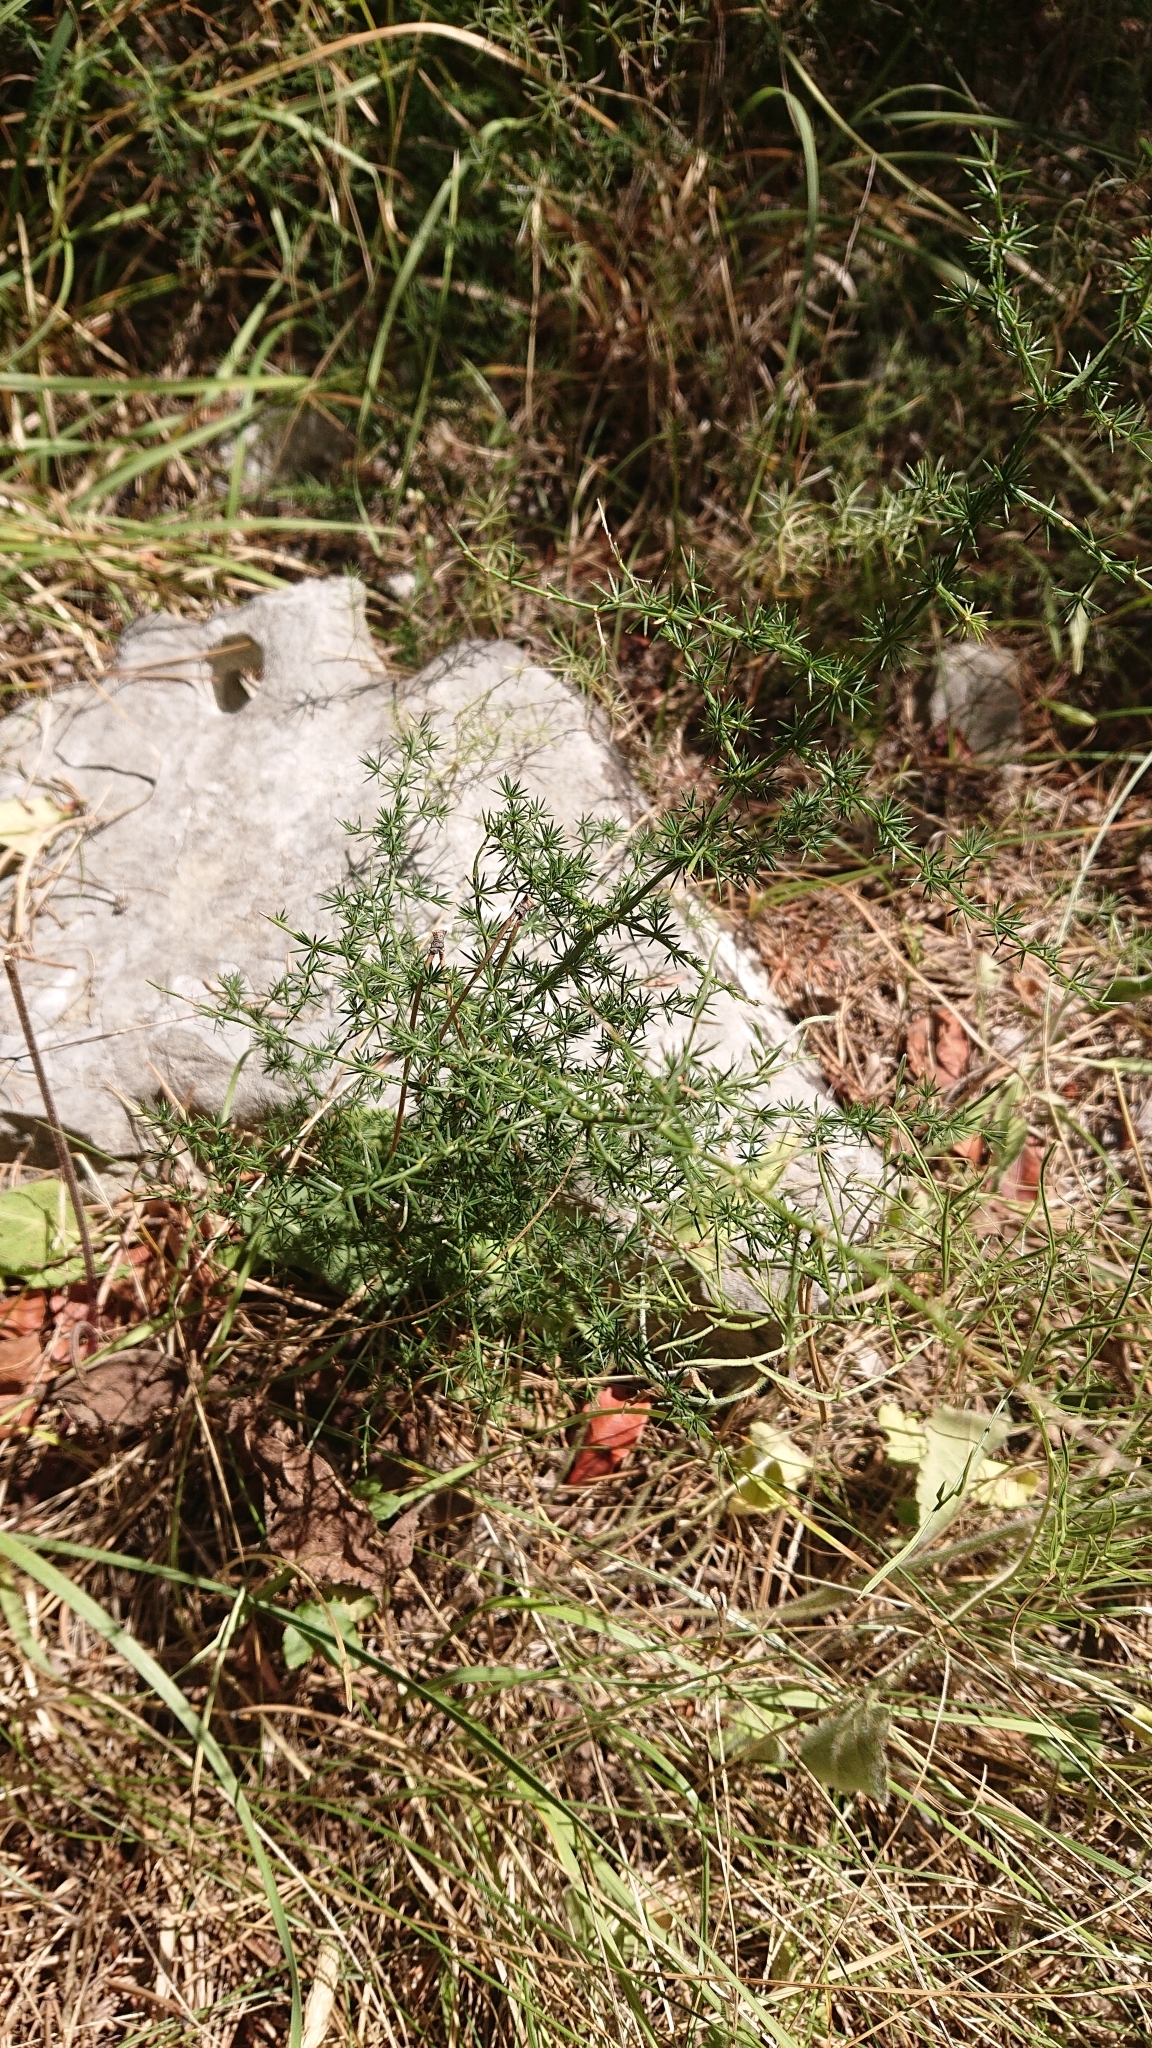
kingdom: Plantae
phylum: Tracheophyta
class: Liliopsida
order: Asparagales
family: Asparagaceae
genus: Asparagus
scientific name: Asparagus acutifolius
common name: Wild asparagus
